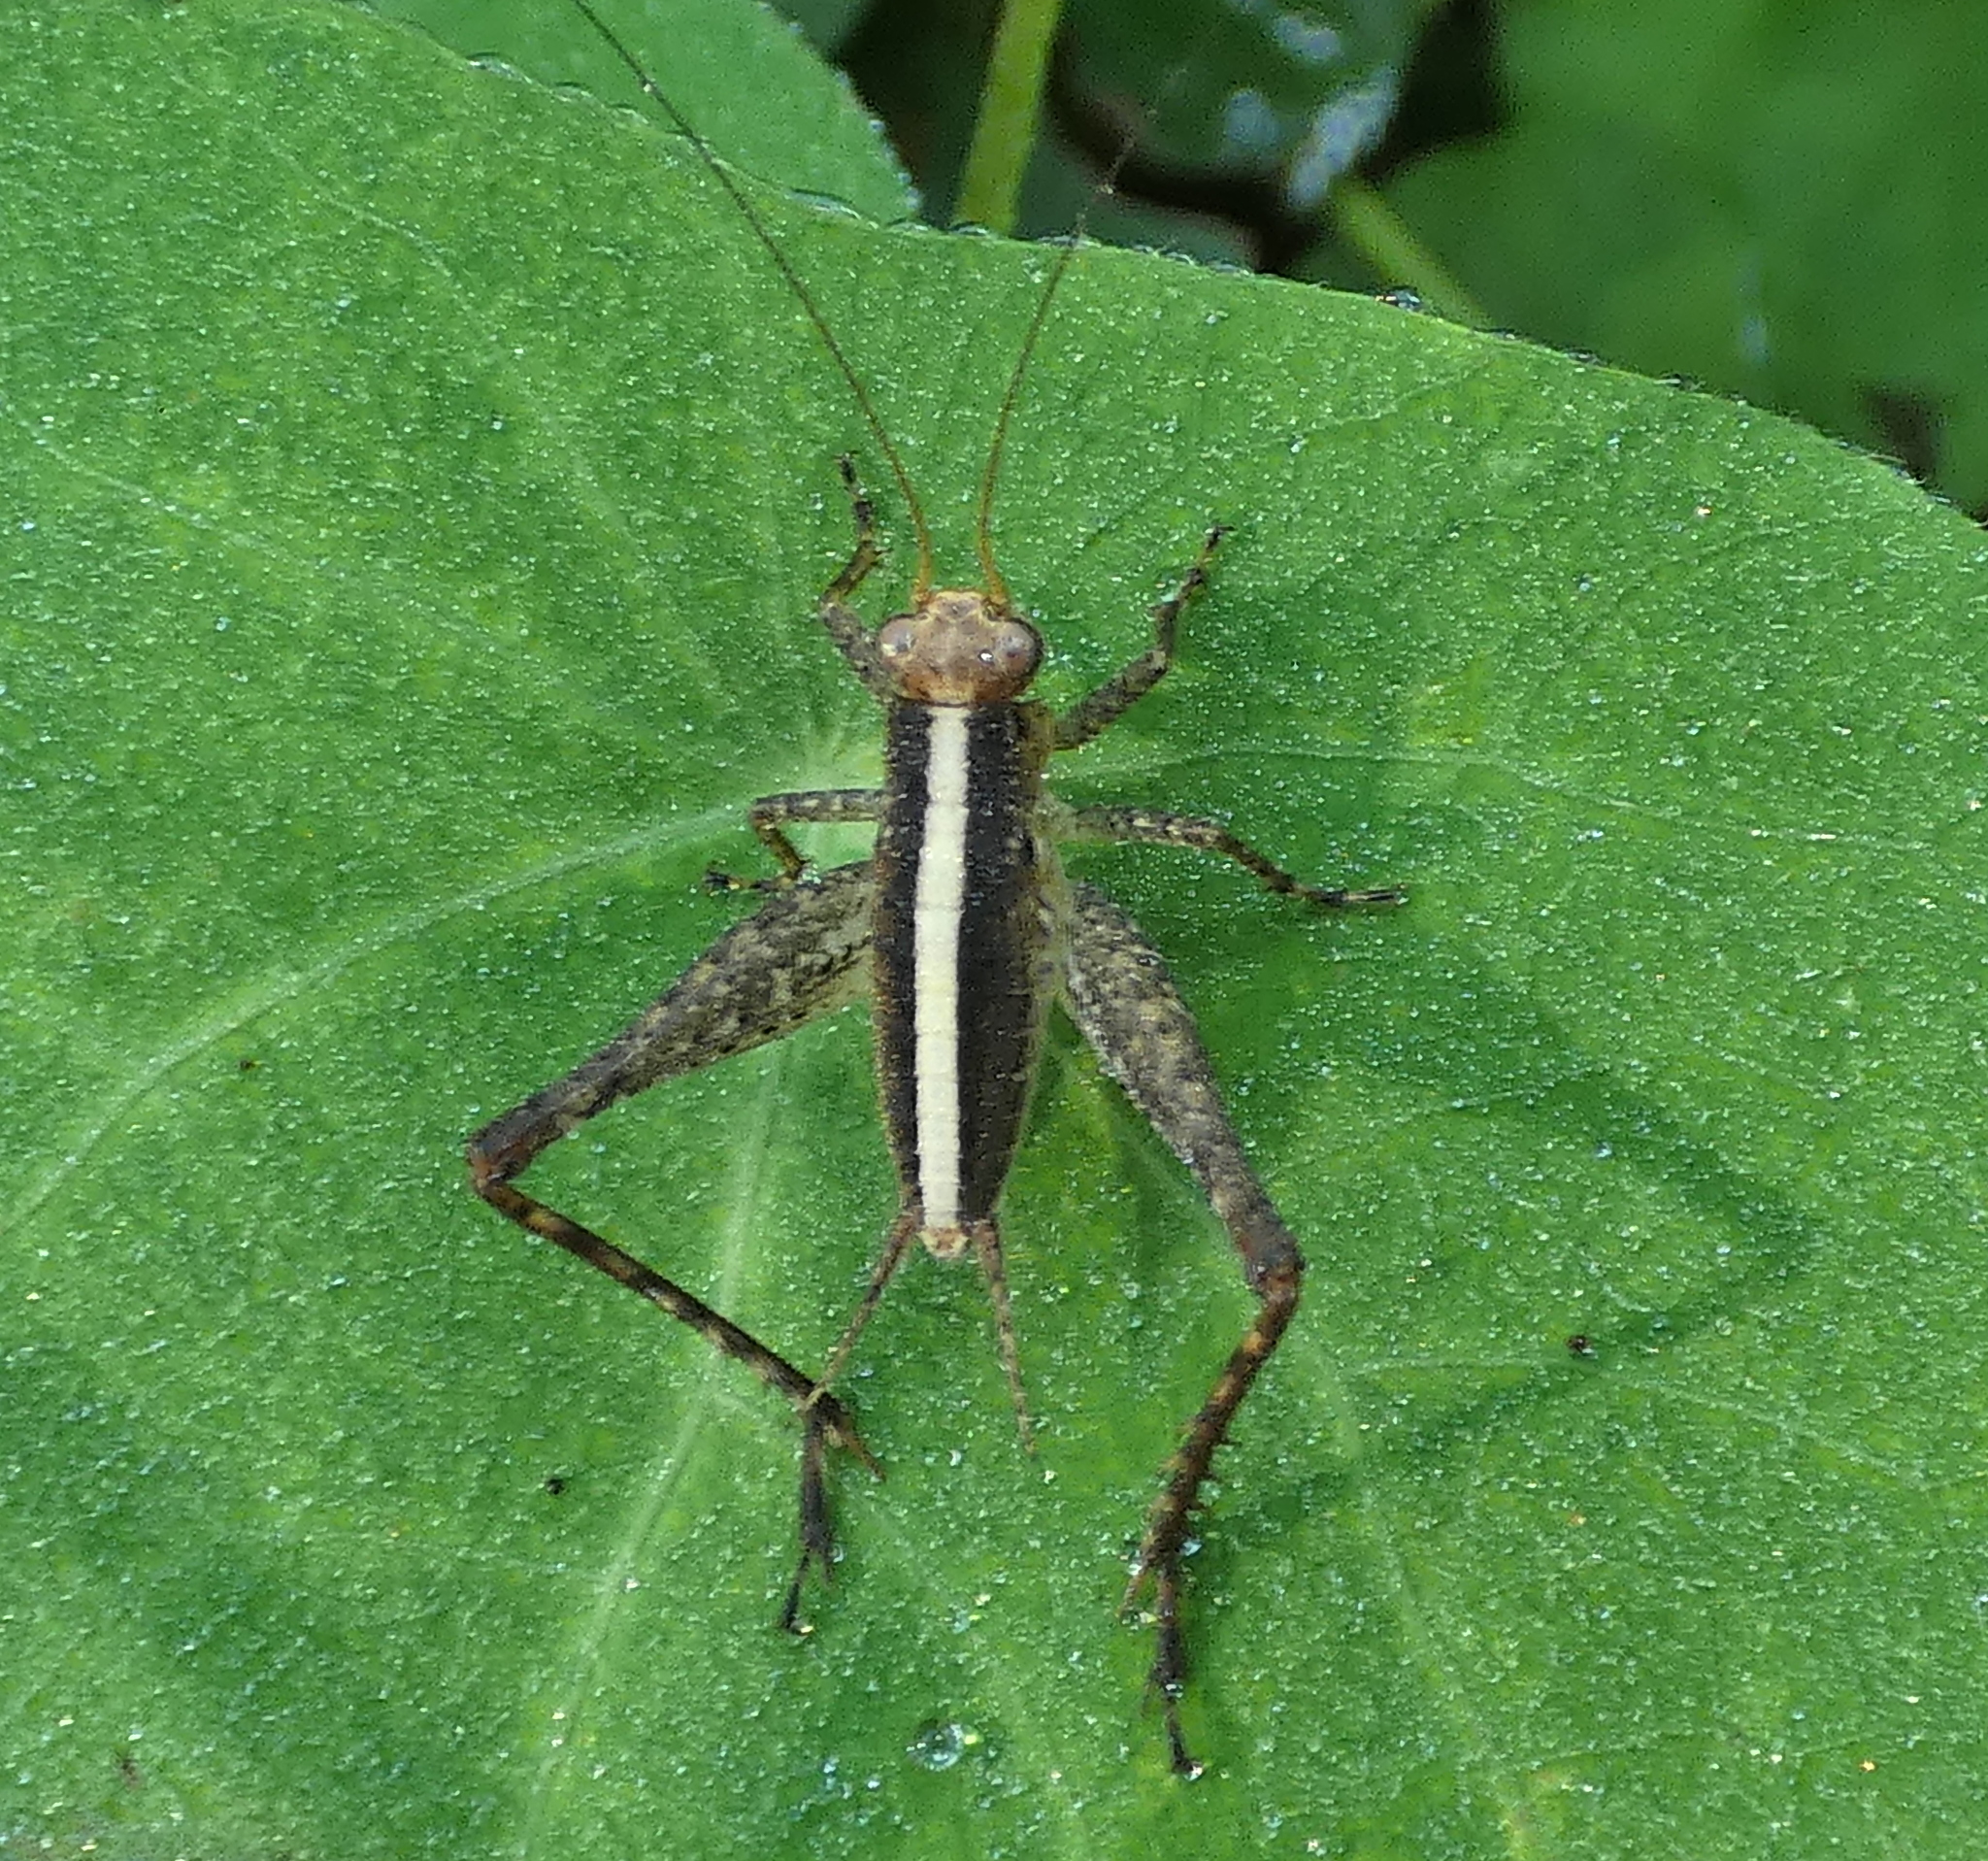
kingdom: Animalia
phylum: Arthropoda
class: Insecta
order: Orthoptera
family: Gryllidae
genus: Eneoptera
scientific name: Eneoptera surinamensis
